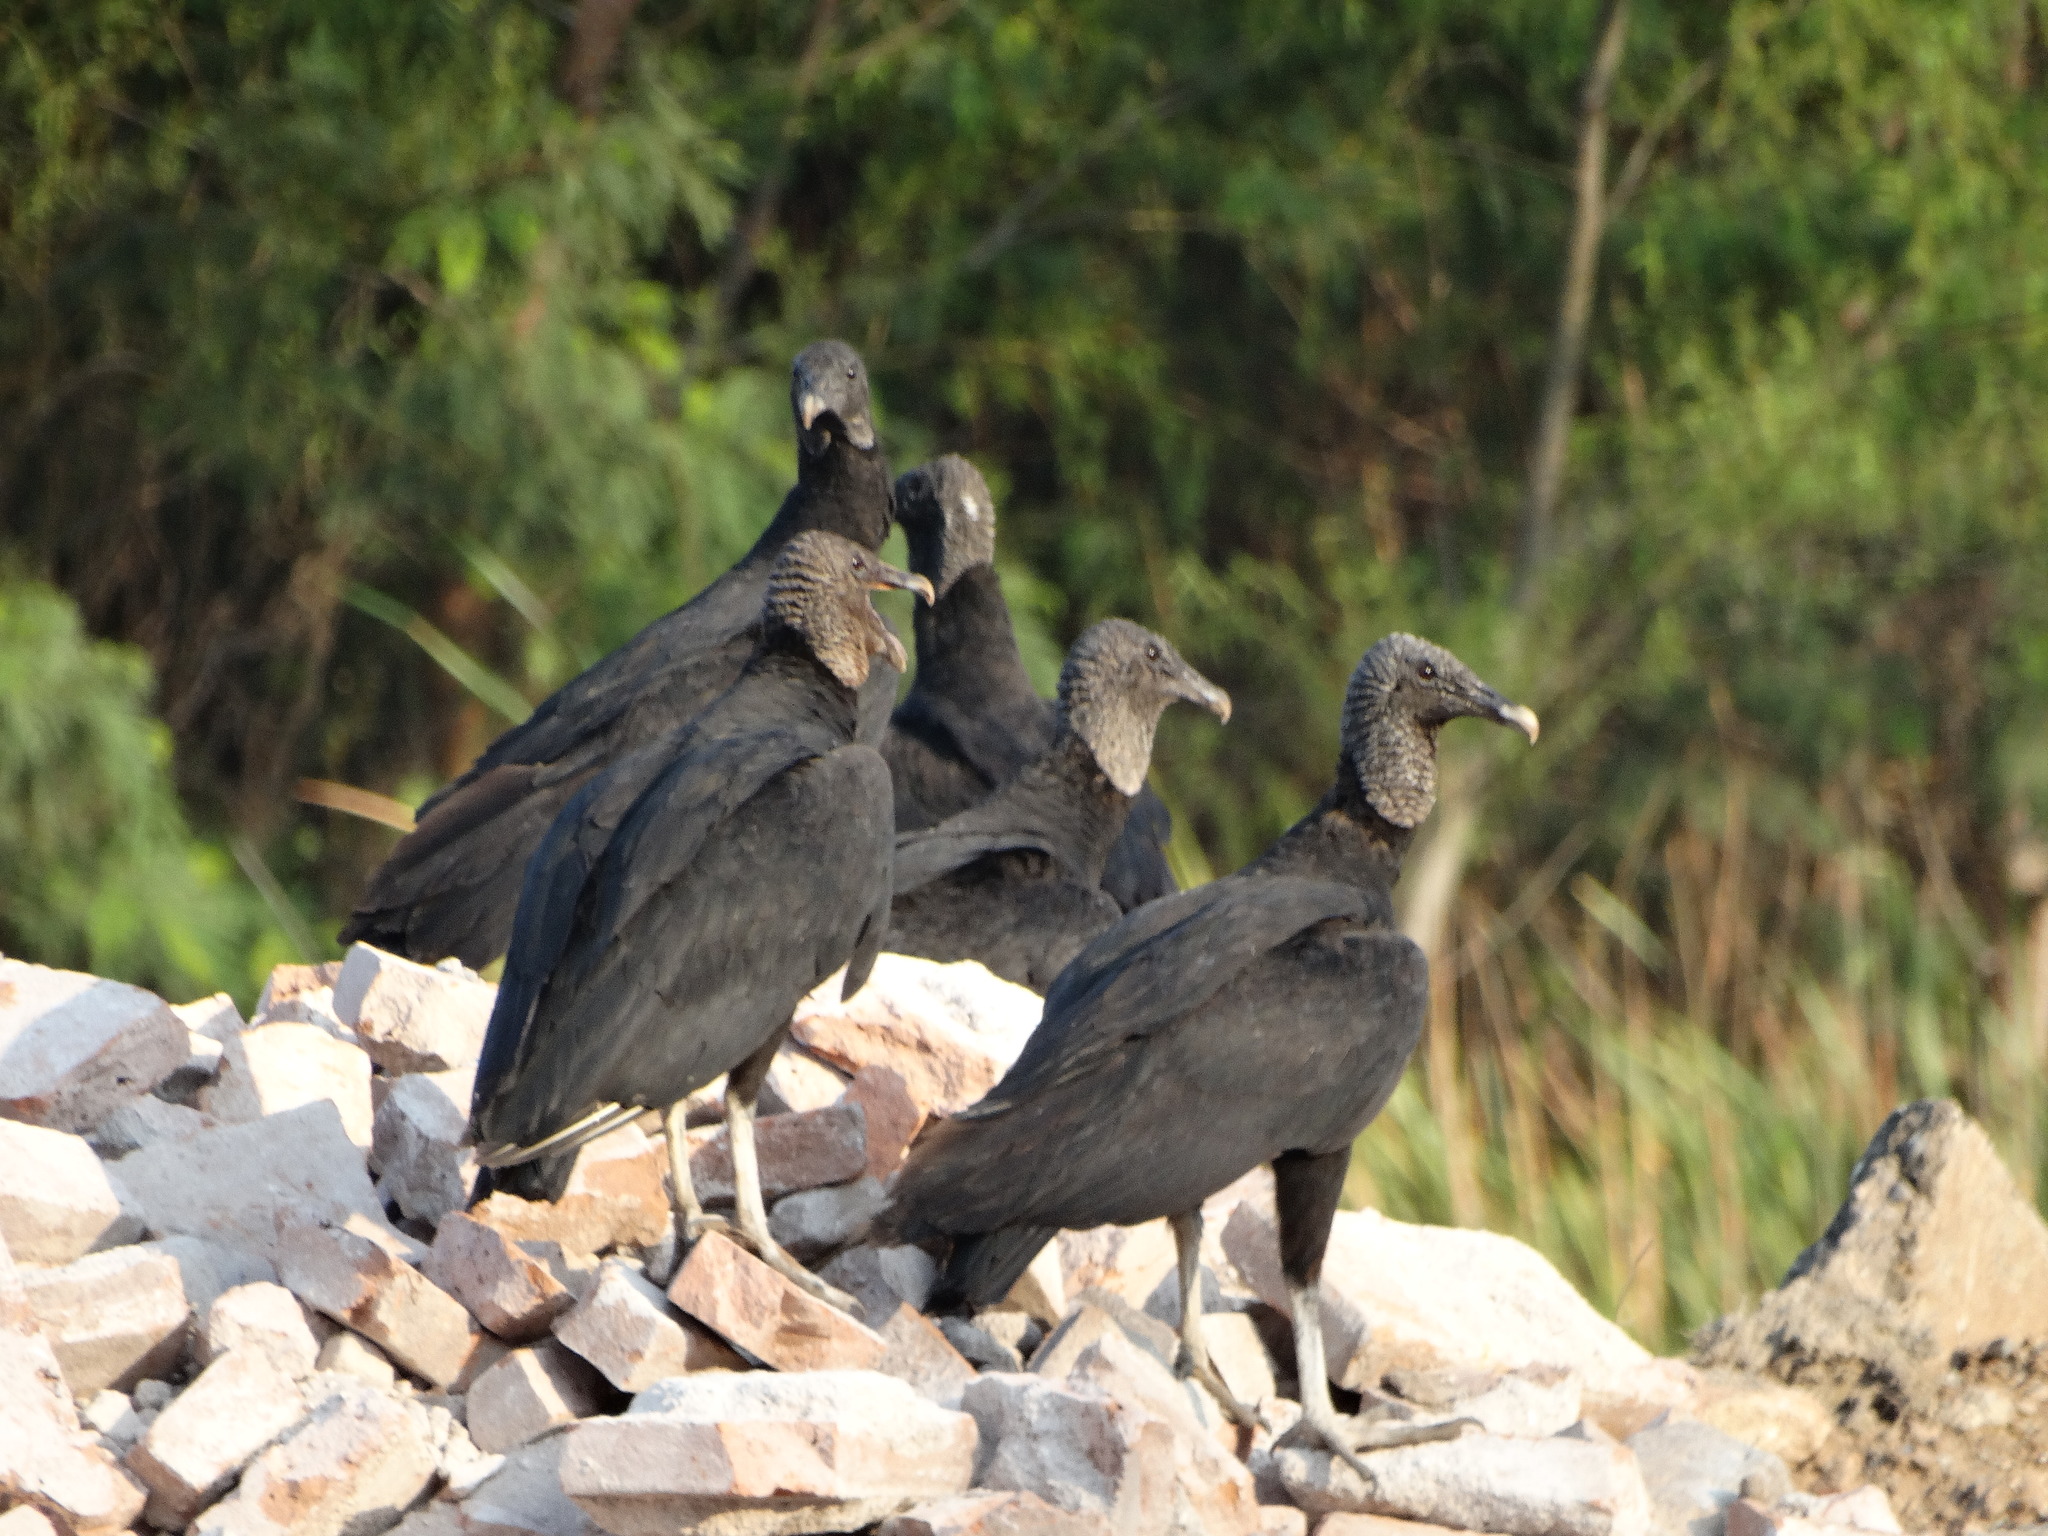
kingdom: Animalia
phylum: Chordata
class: Aves
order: Accipitriformes
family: Cathartidae
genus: Coragyps
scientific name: Coragyps atratus
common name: Black vulture
